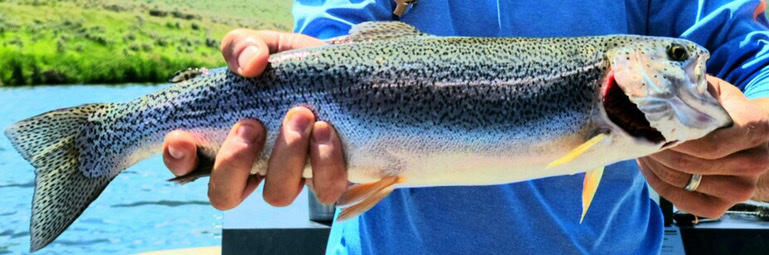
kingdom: Animalia
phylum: Chordata
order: Salmoniformes
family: Salmonidae
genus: Oncorhynchus
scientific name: Oncorhynchus mykiss
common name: Rainbow trout
